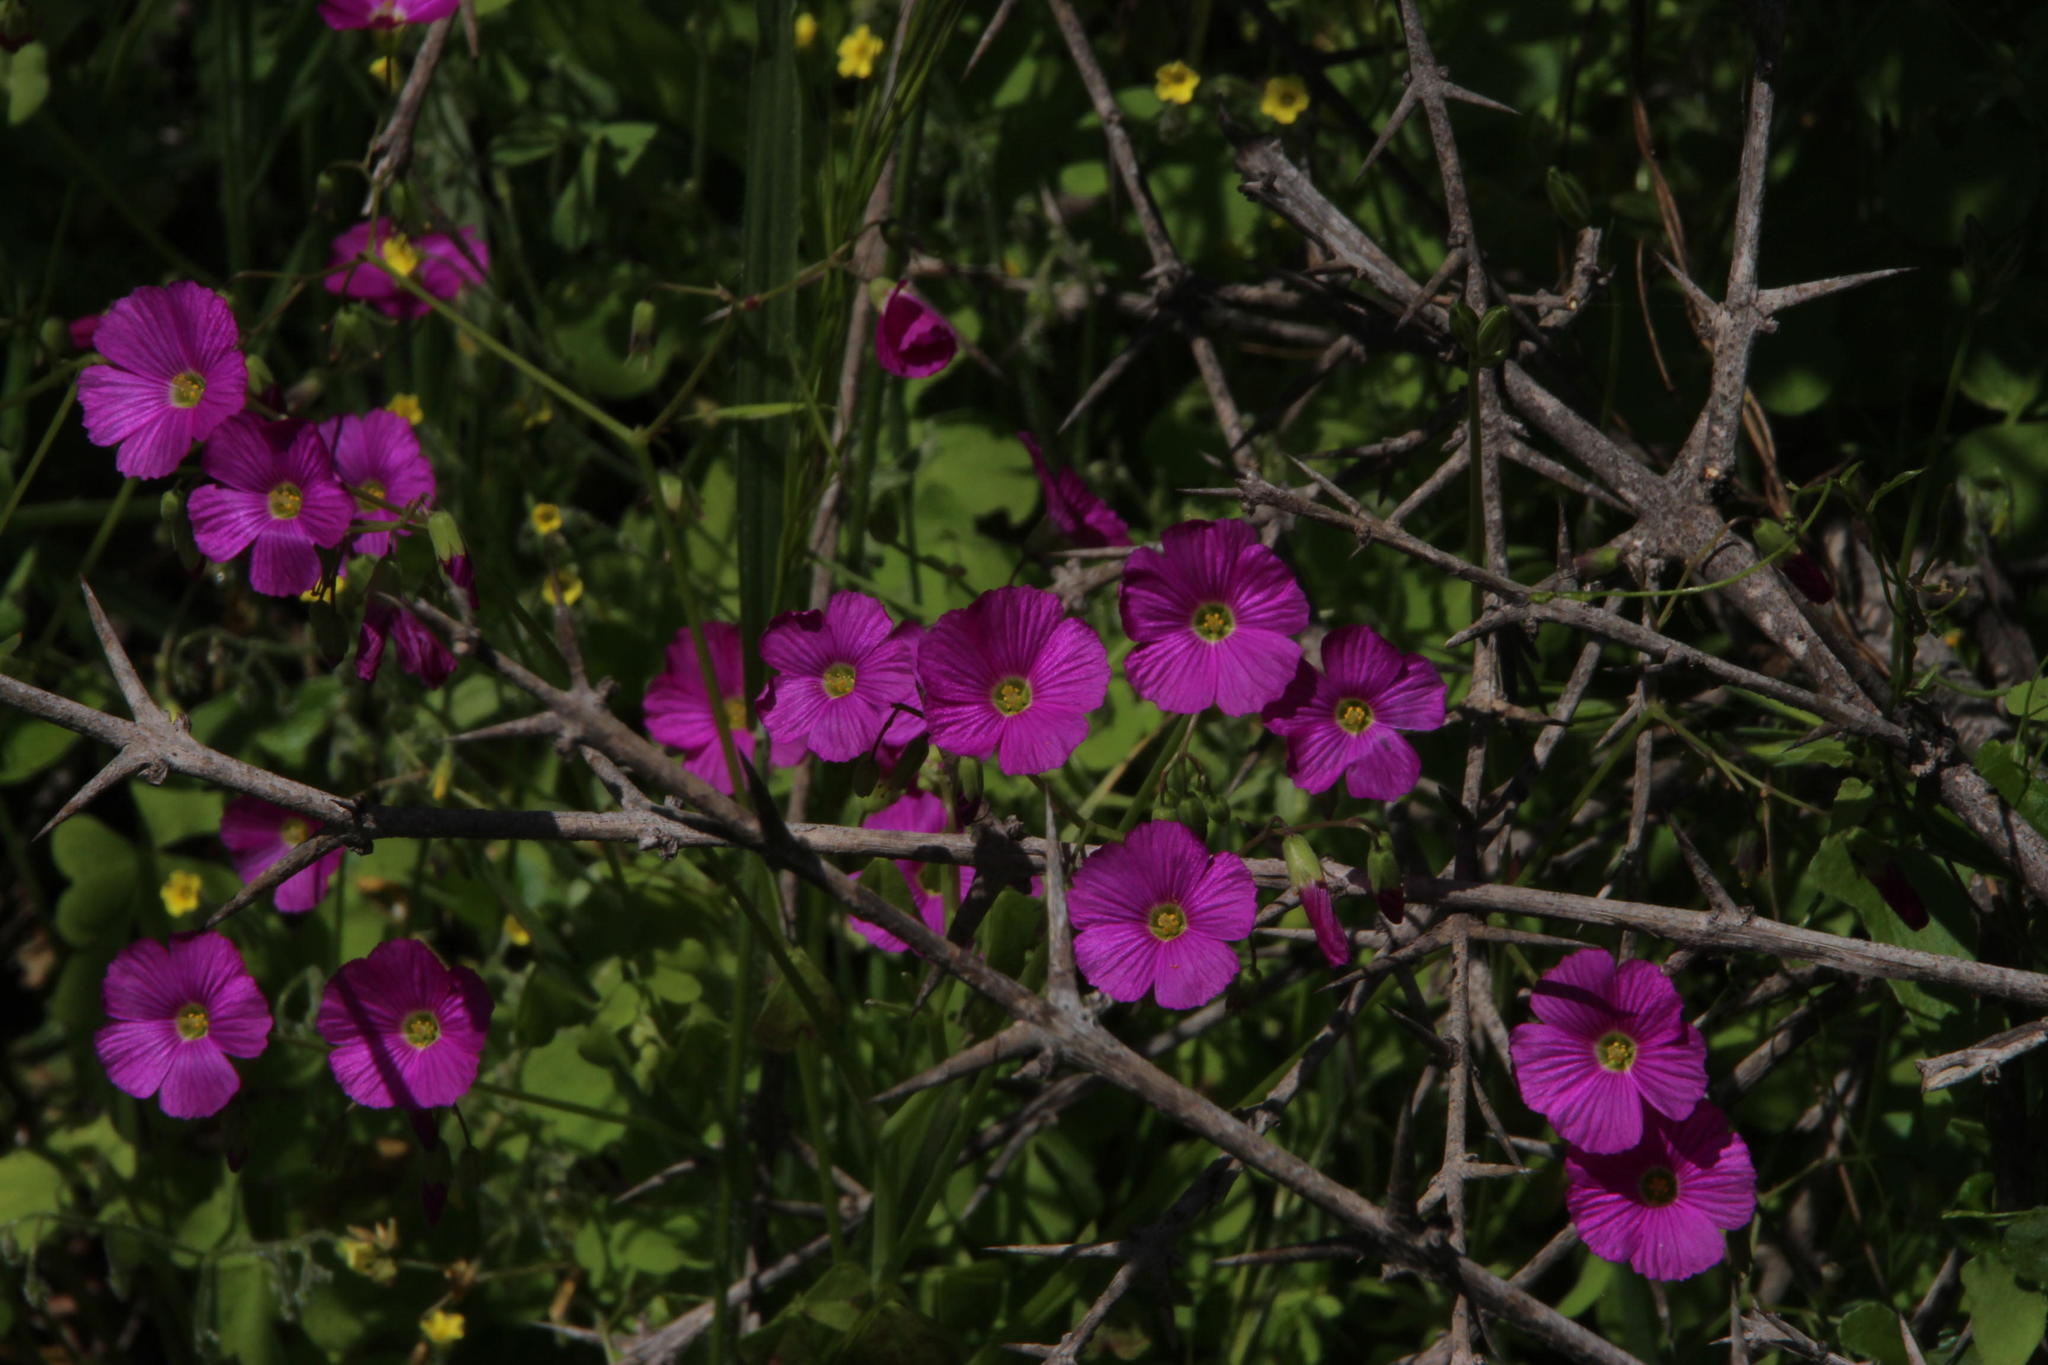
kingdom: Plantae
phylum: Tracheophyta
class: Magnoliopsida
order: Oxalidales
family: Oxalidaceae
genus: Oxalis
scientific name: Oxalis rosea
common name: Annual pink-sorrel
